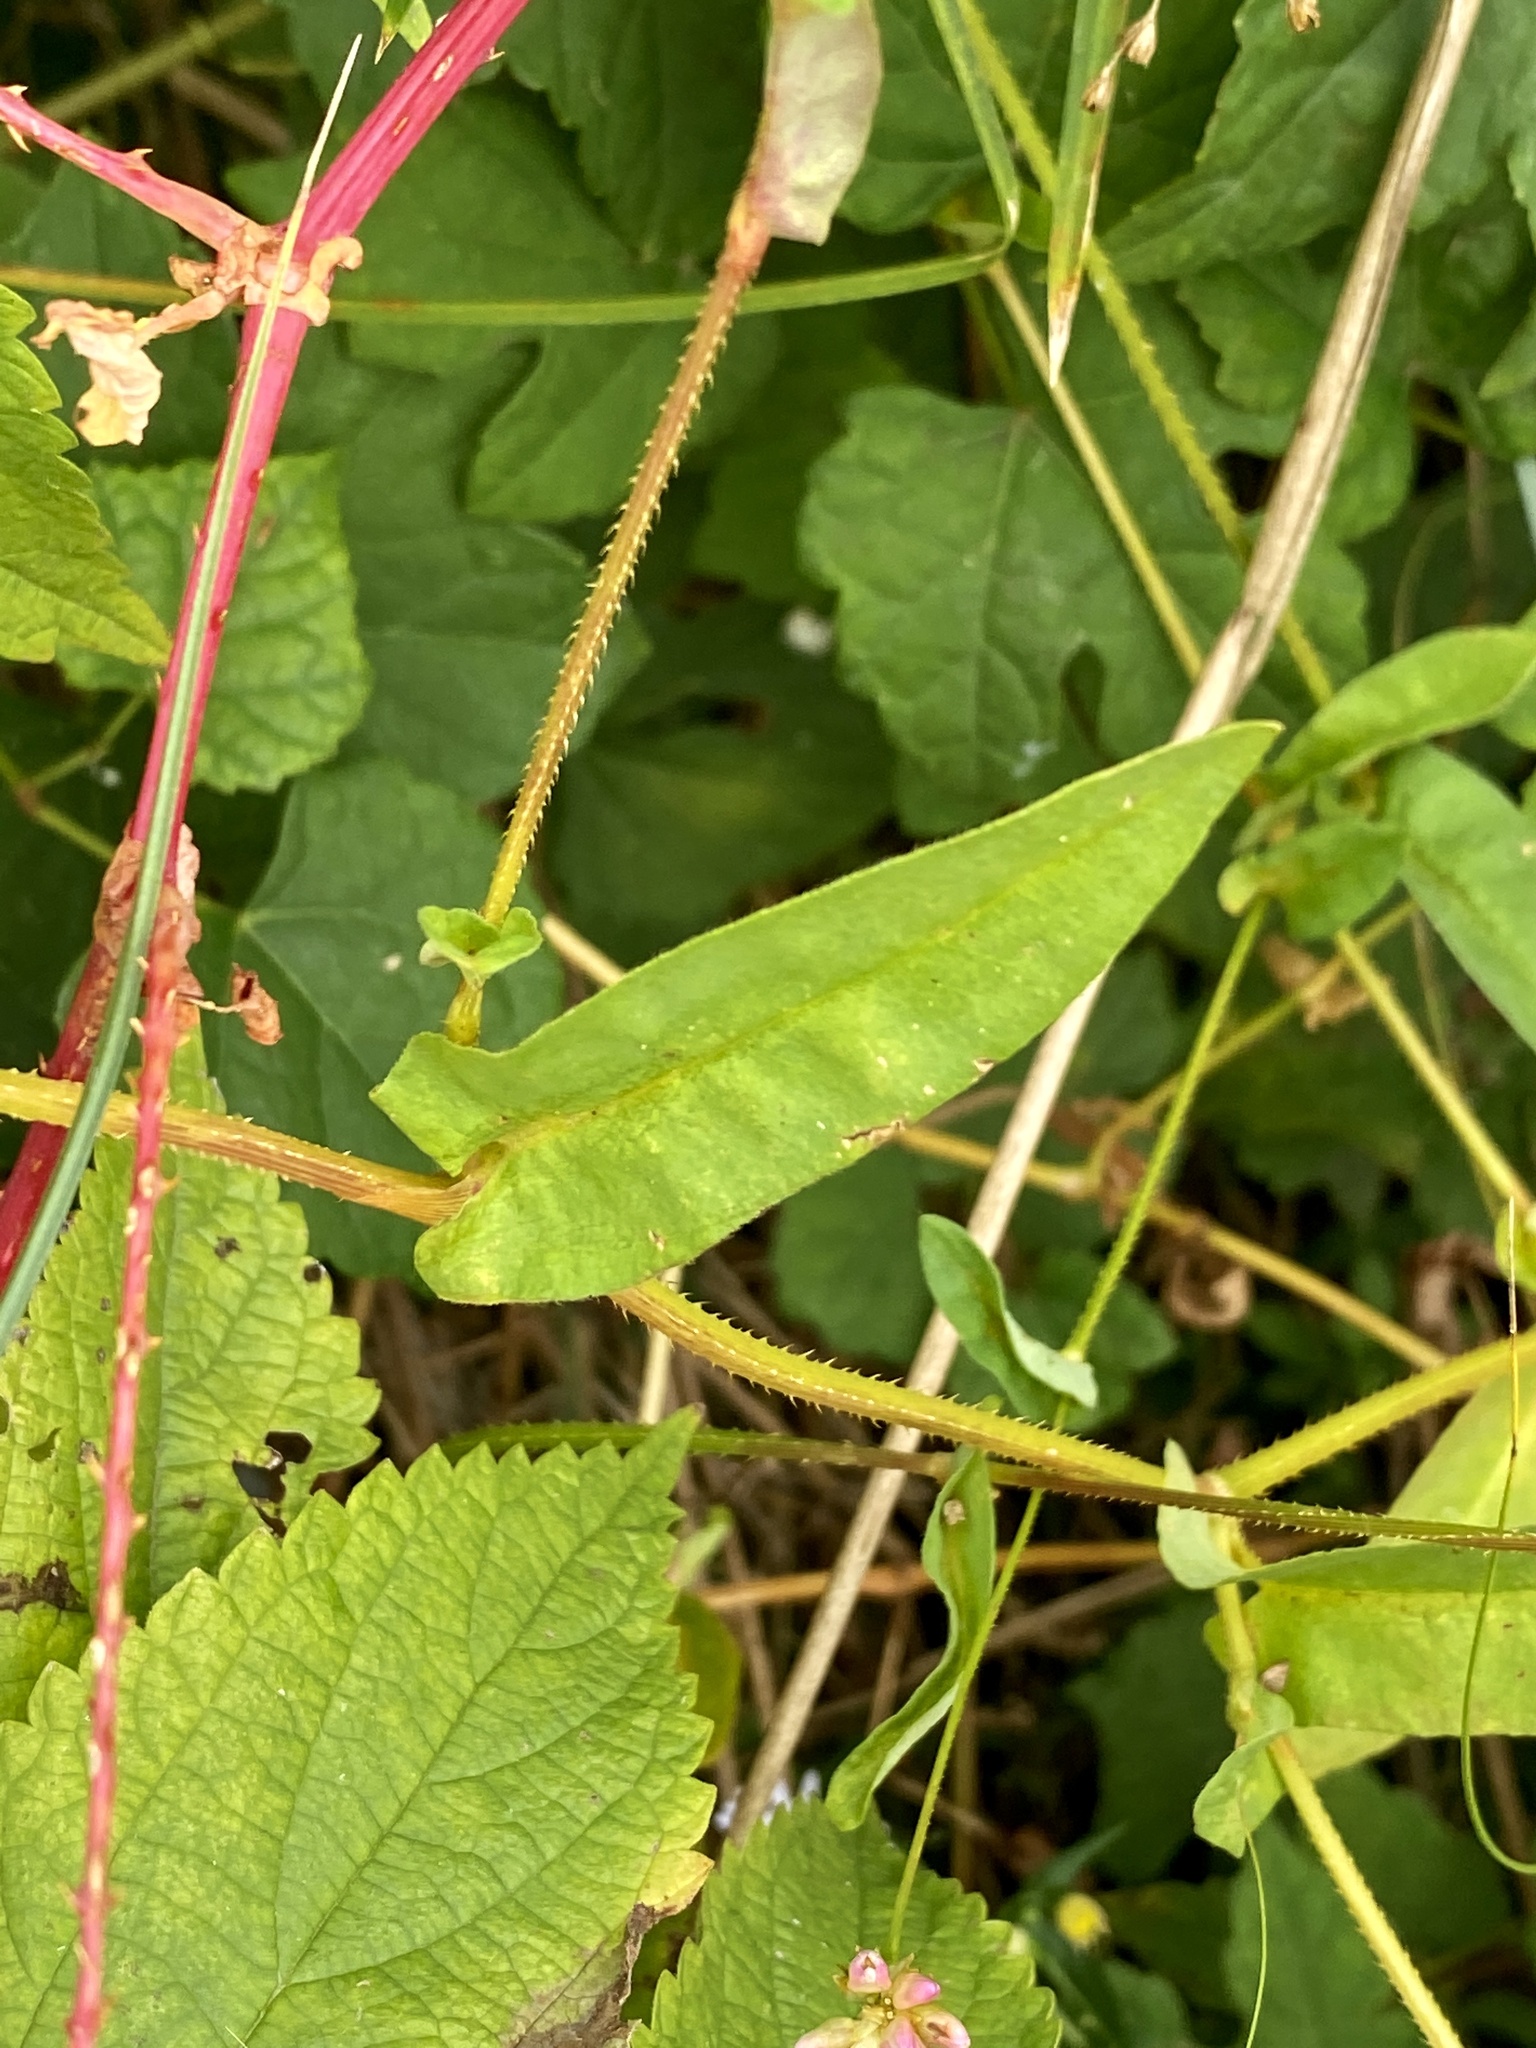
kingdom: Plantae
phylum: Tracheophyta
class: Magnoliopsida
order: Caryophyllales
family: Polygonaceae
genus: Persicaria
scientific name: Persicaria sagittata
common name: American tearthumb
